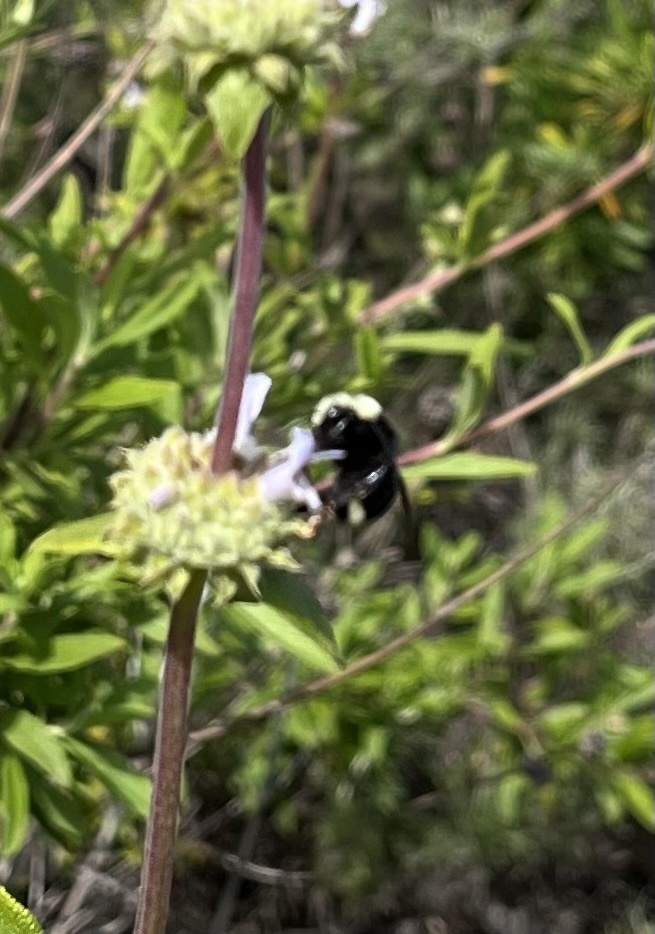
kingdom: Animalia
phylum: Arthropoda
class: Insecta
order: Hymenoptera
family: Apidae
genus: Bombus
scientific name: Bombus vosnesenskii
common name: Vosnesensky bumble bee
